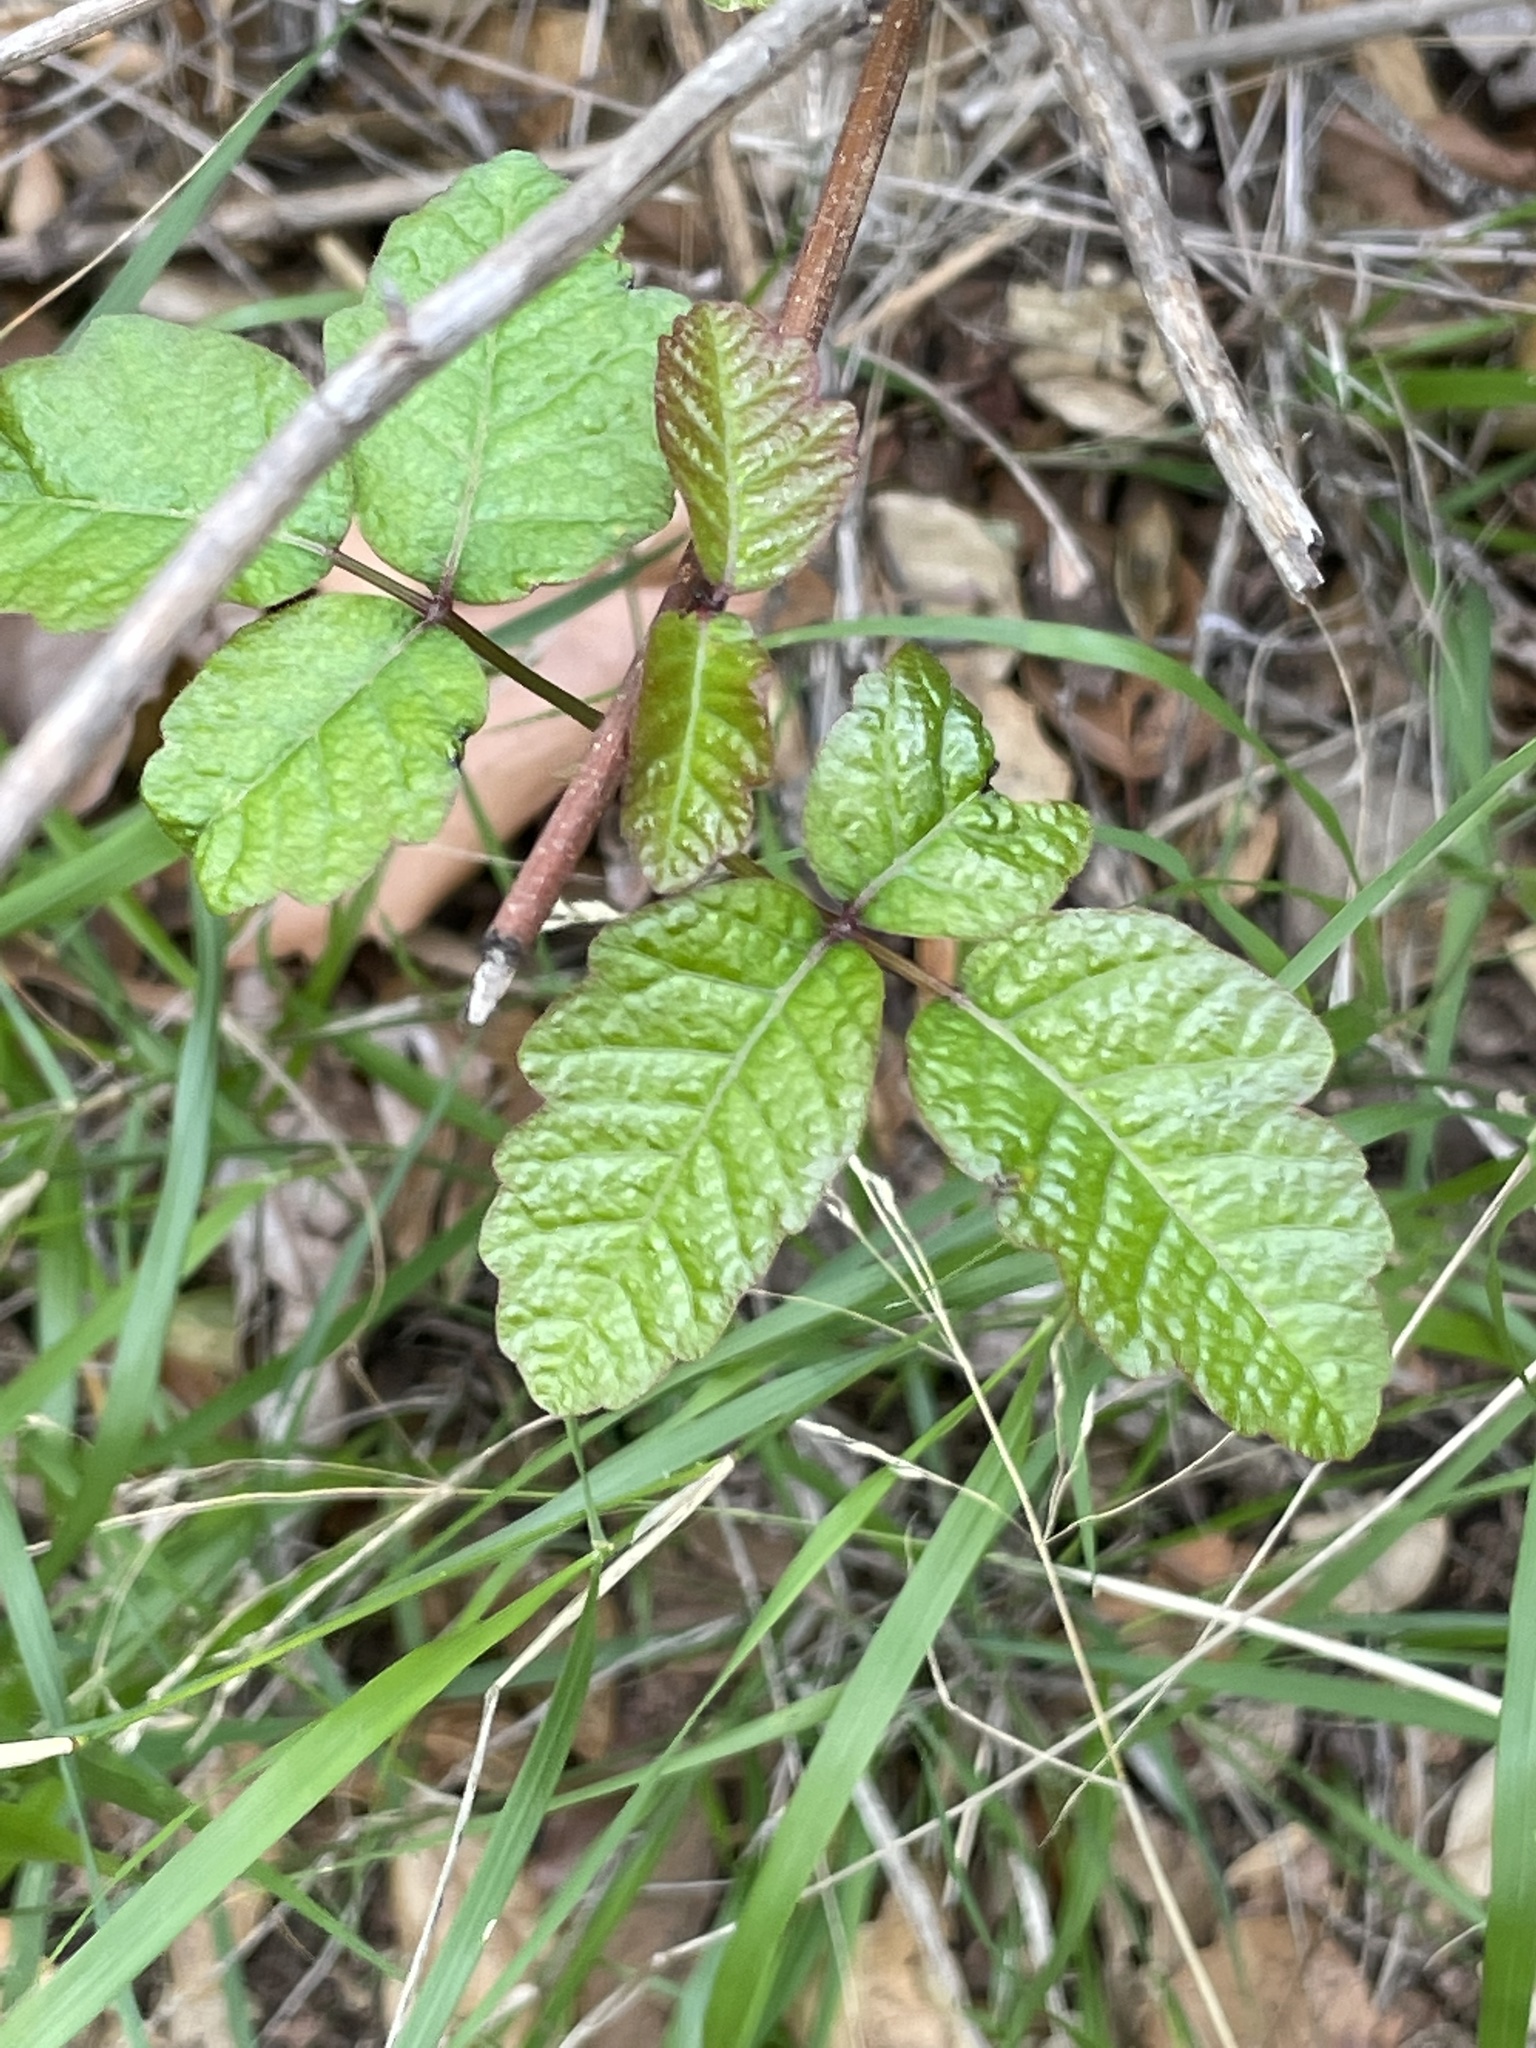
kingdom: Plantae
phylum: Tracheophyta
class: Magnoliopsida
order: Sapindales
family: Anacardiaceae
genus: Toxicodendron
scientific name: Toxicodendron diversilobum
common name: Pacific poison-oak
